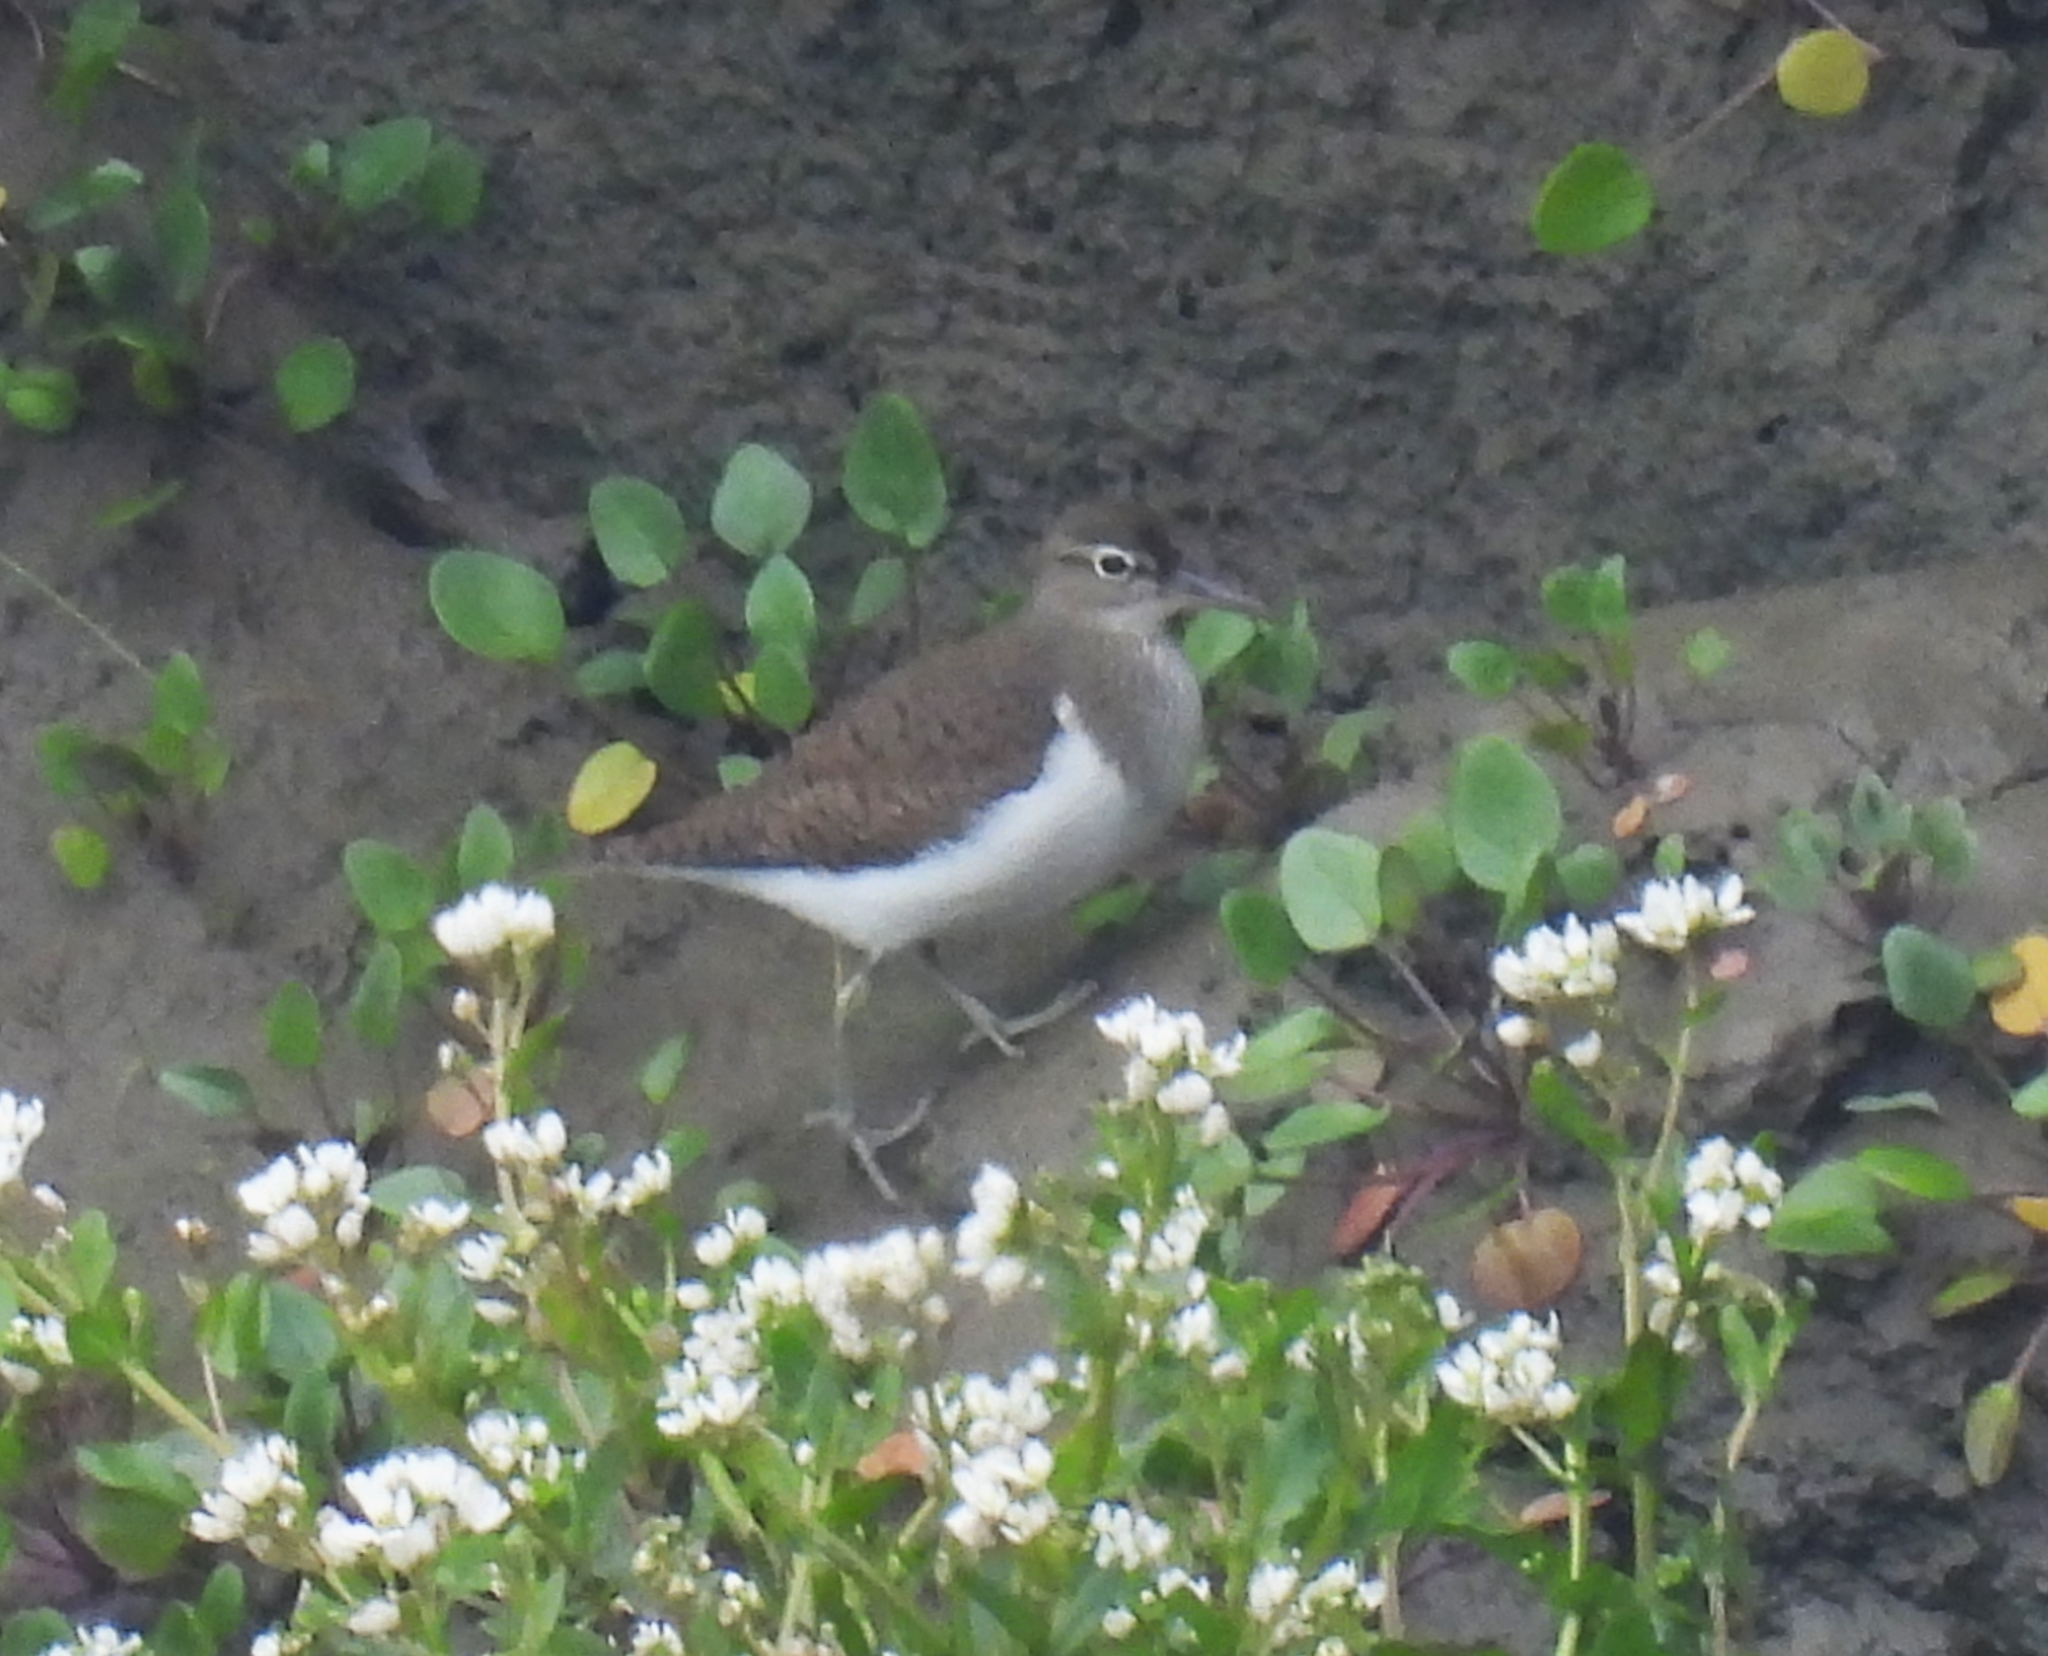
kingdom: Animalia
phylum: Chordata
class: Aves
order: Charadriiformes
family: Scolopacidae
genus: Actitis
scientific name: Actitis hypoleucos
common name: Common sandpiper
